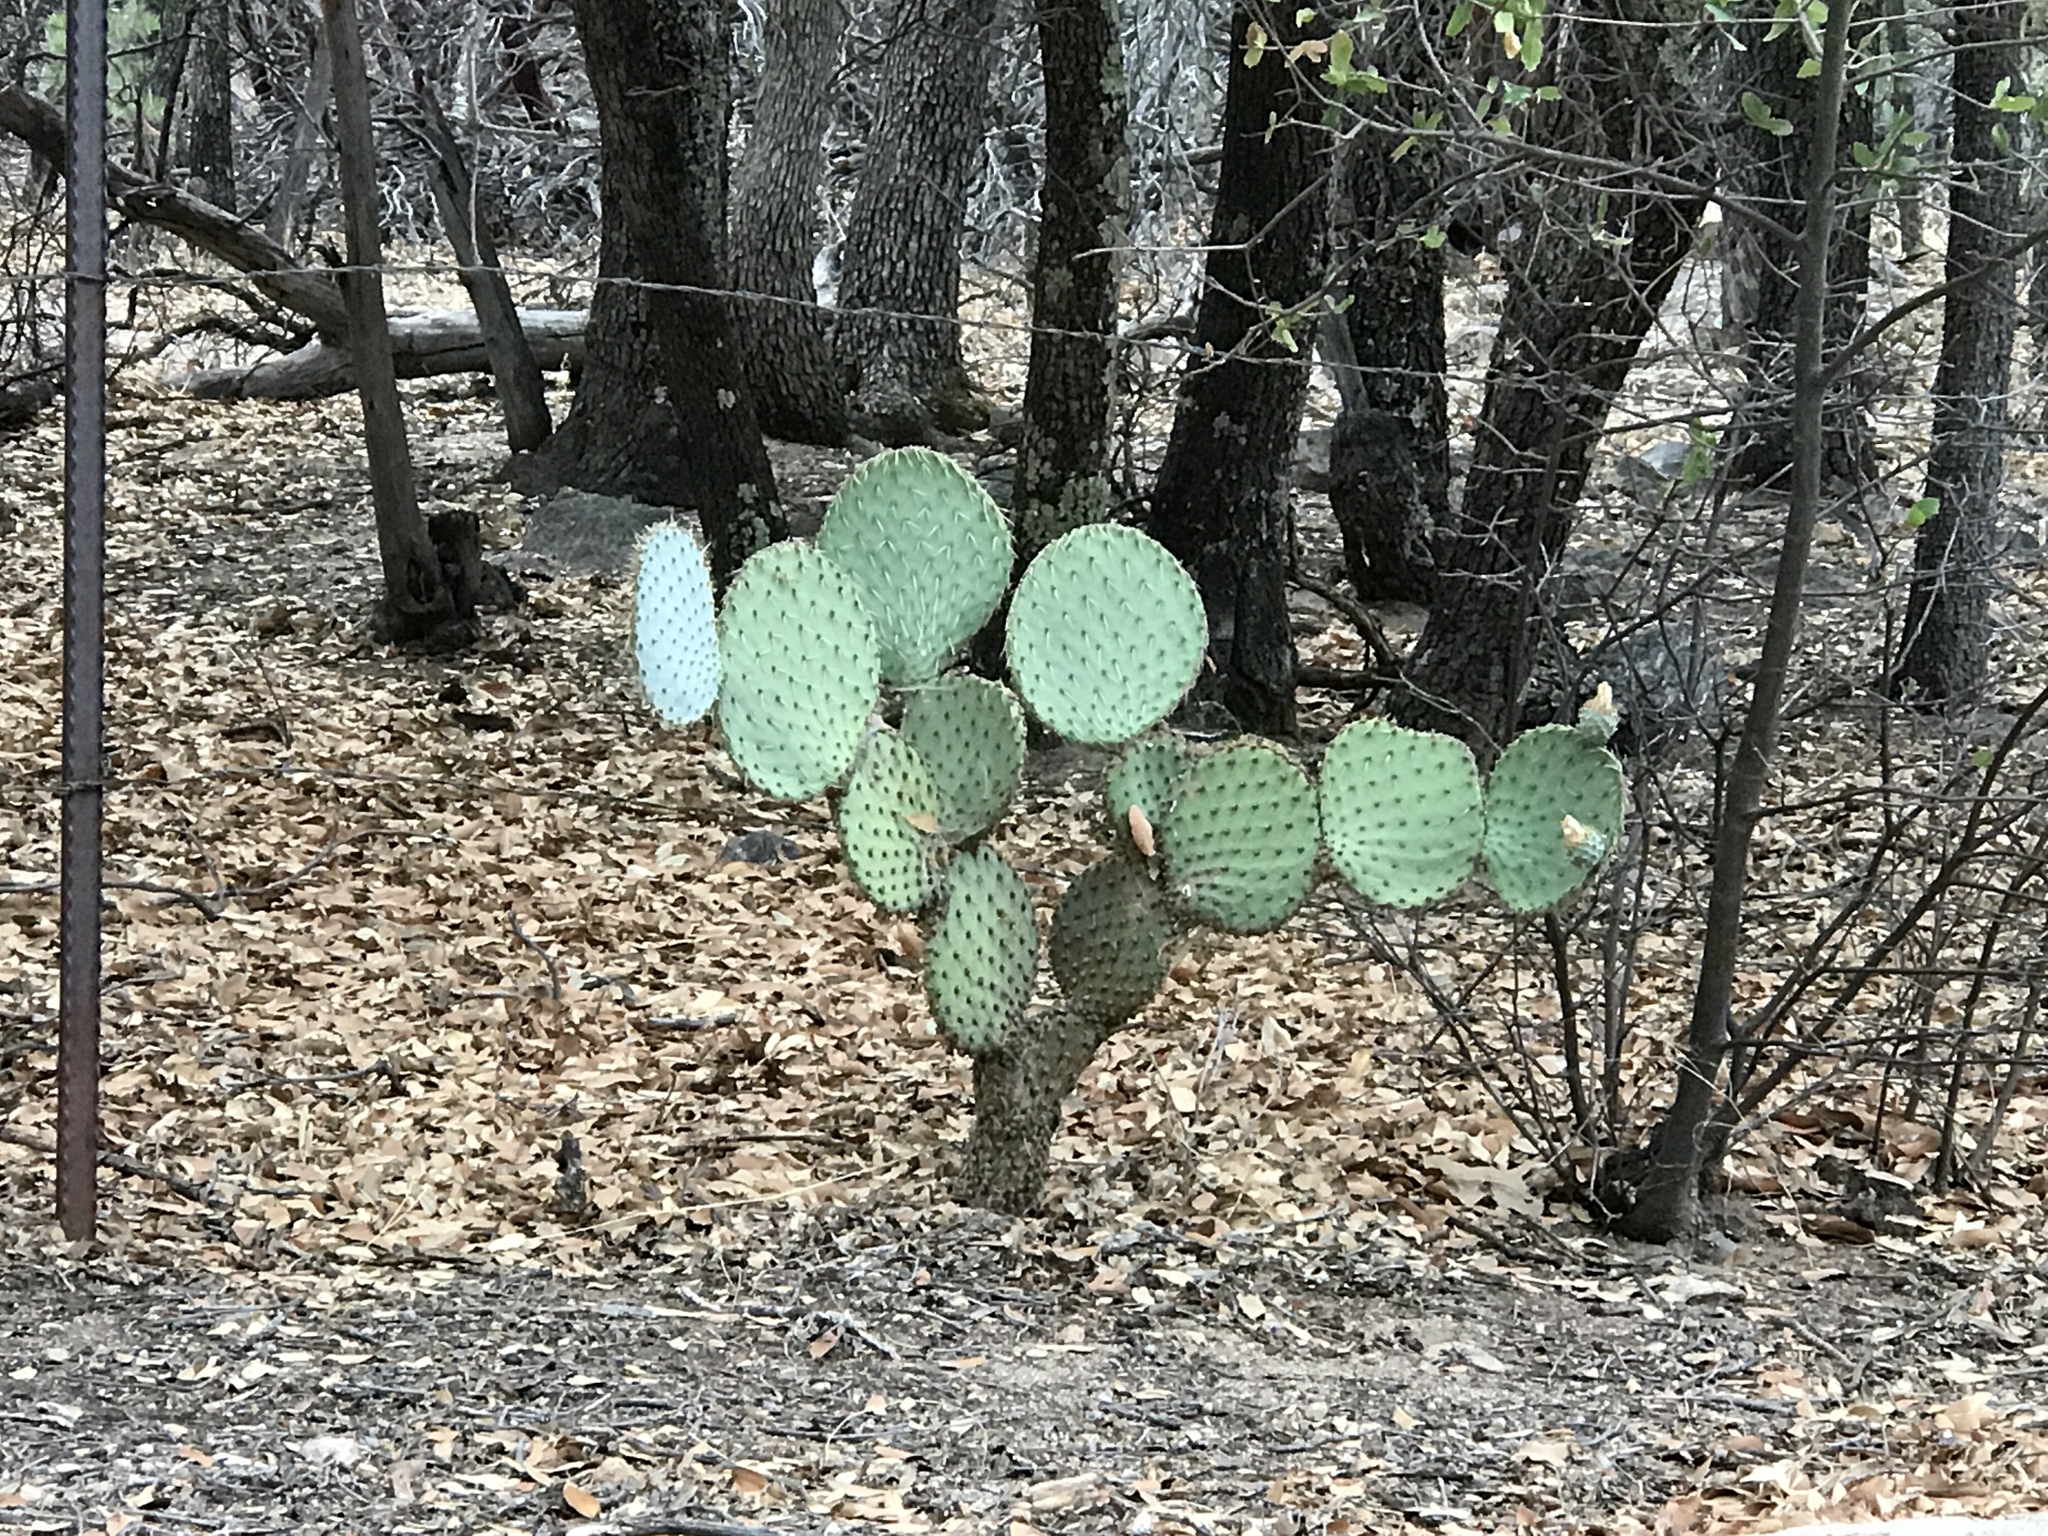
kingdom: Plantae
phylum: Tracheophyta
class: Magnoliopsida
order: Caryophyllales
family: Cactaceae
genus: Opuntia
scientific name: Opuntia chlorotica
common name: Dollar-joint prickly-pear
